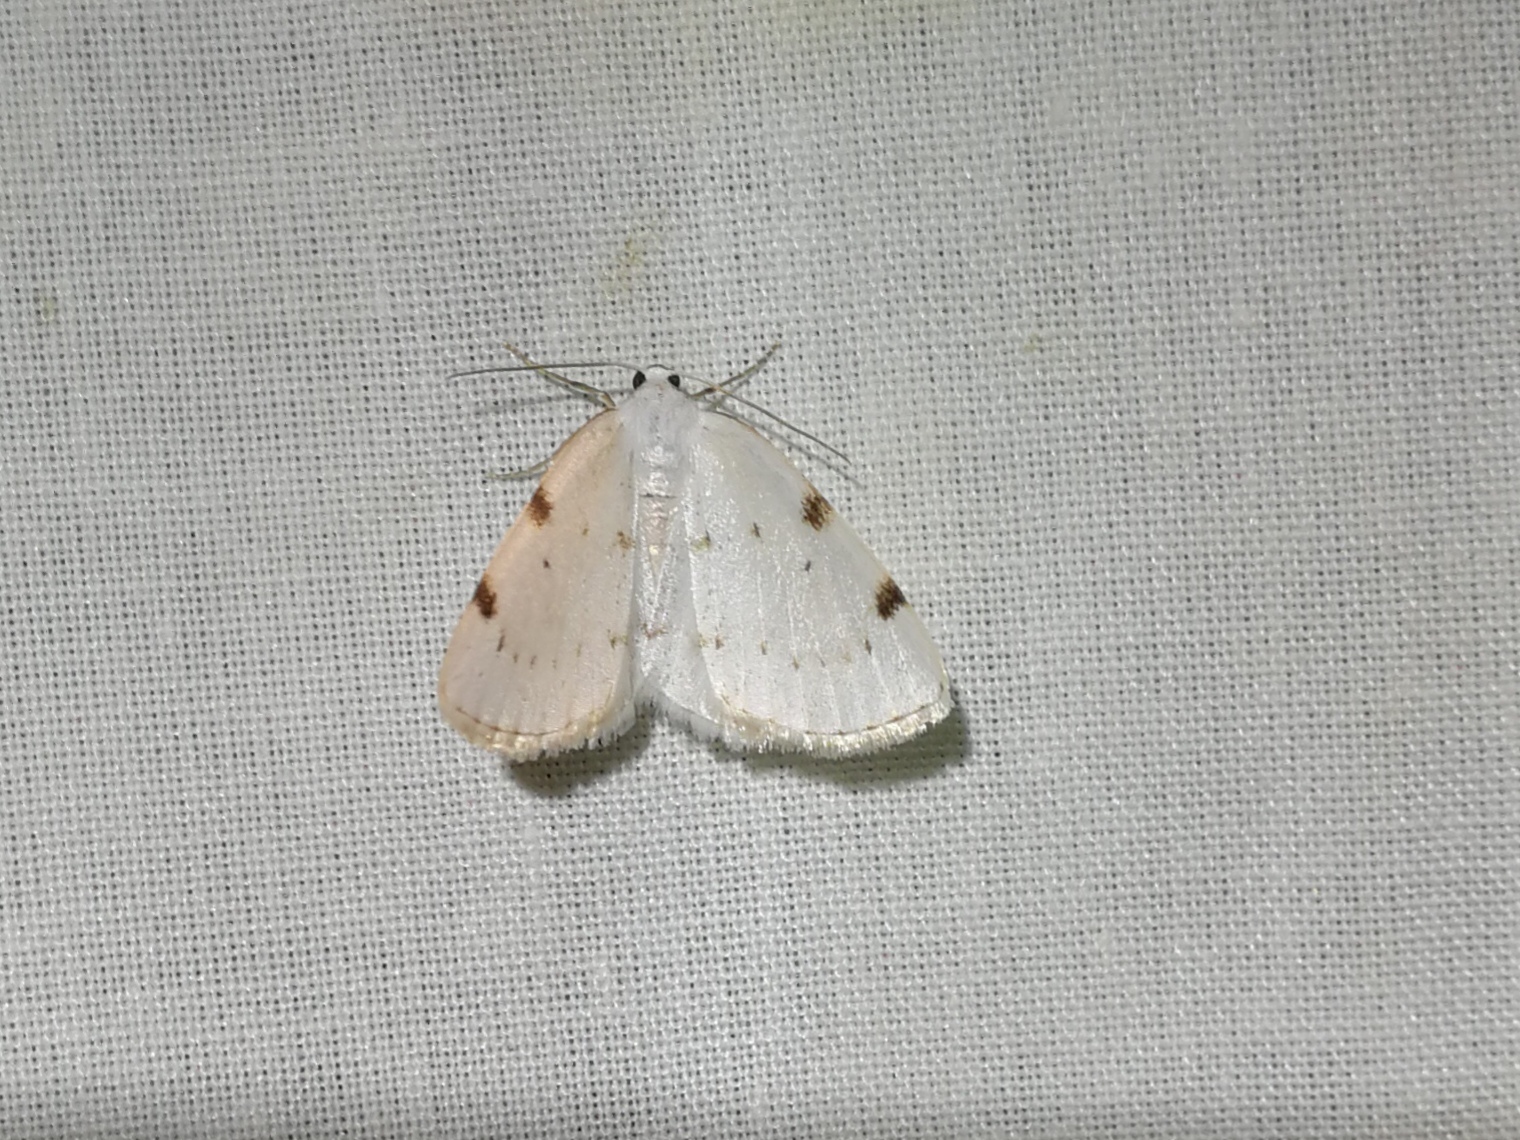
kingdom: Animalia
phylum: Arthropoda
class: Insecta
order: Lepidoptera
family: Geometridae
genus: Lomographa
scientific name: Lomographa bimaculata
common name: White-pinion spotted
